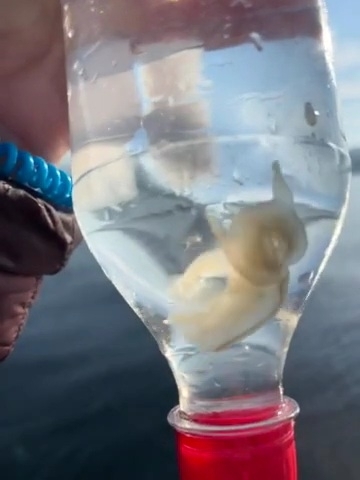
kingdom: Animalia
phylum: Mollusca
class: Gastropoda
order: Nudibranchia
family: Tethydidae
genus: Melibe
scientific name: Melibe leonina
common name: Lion nudibranch
